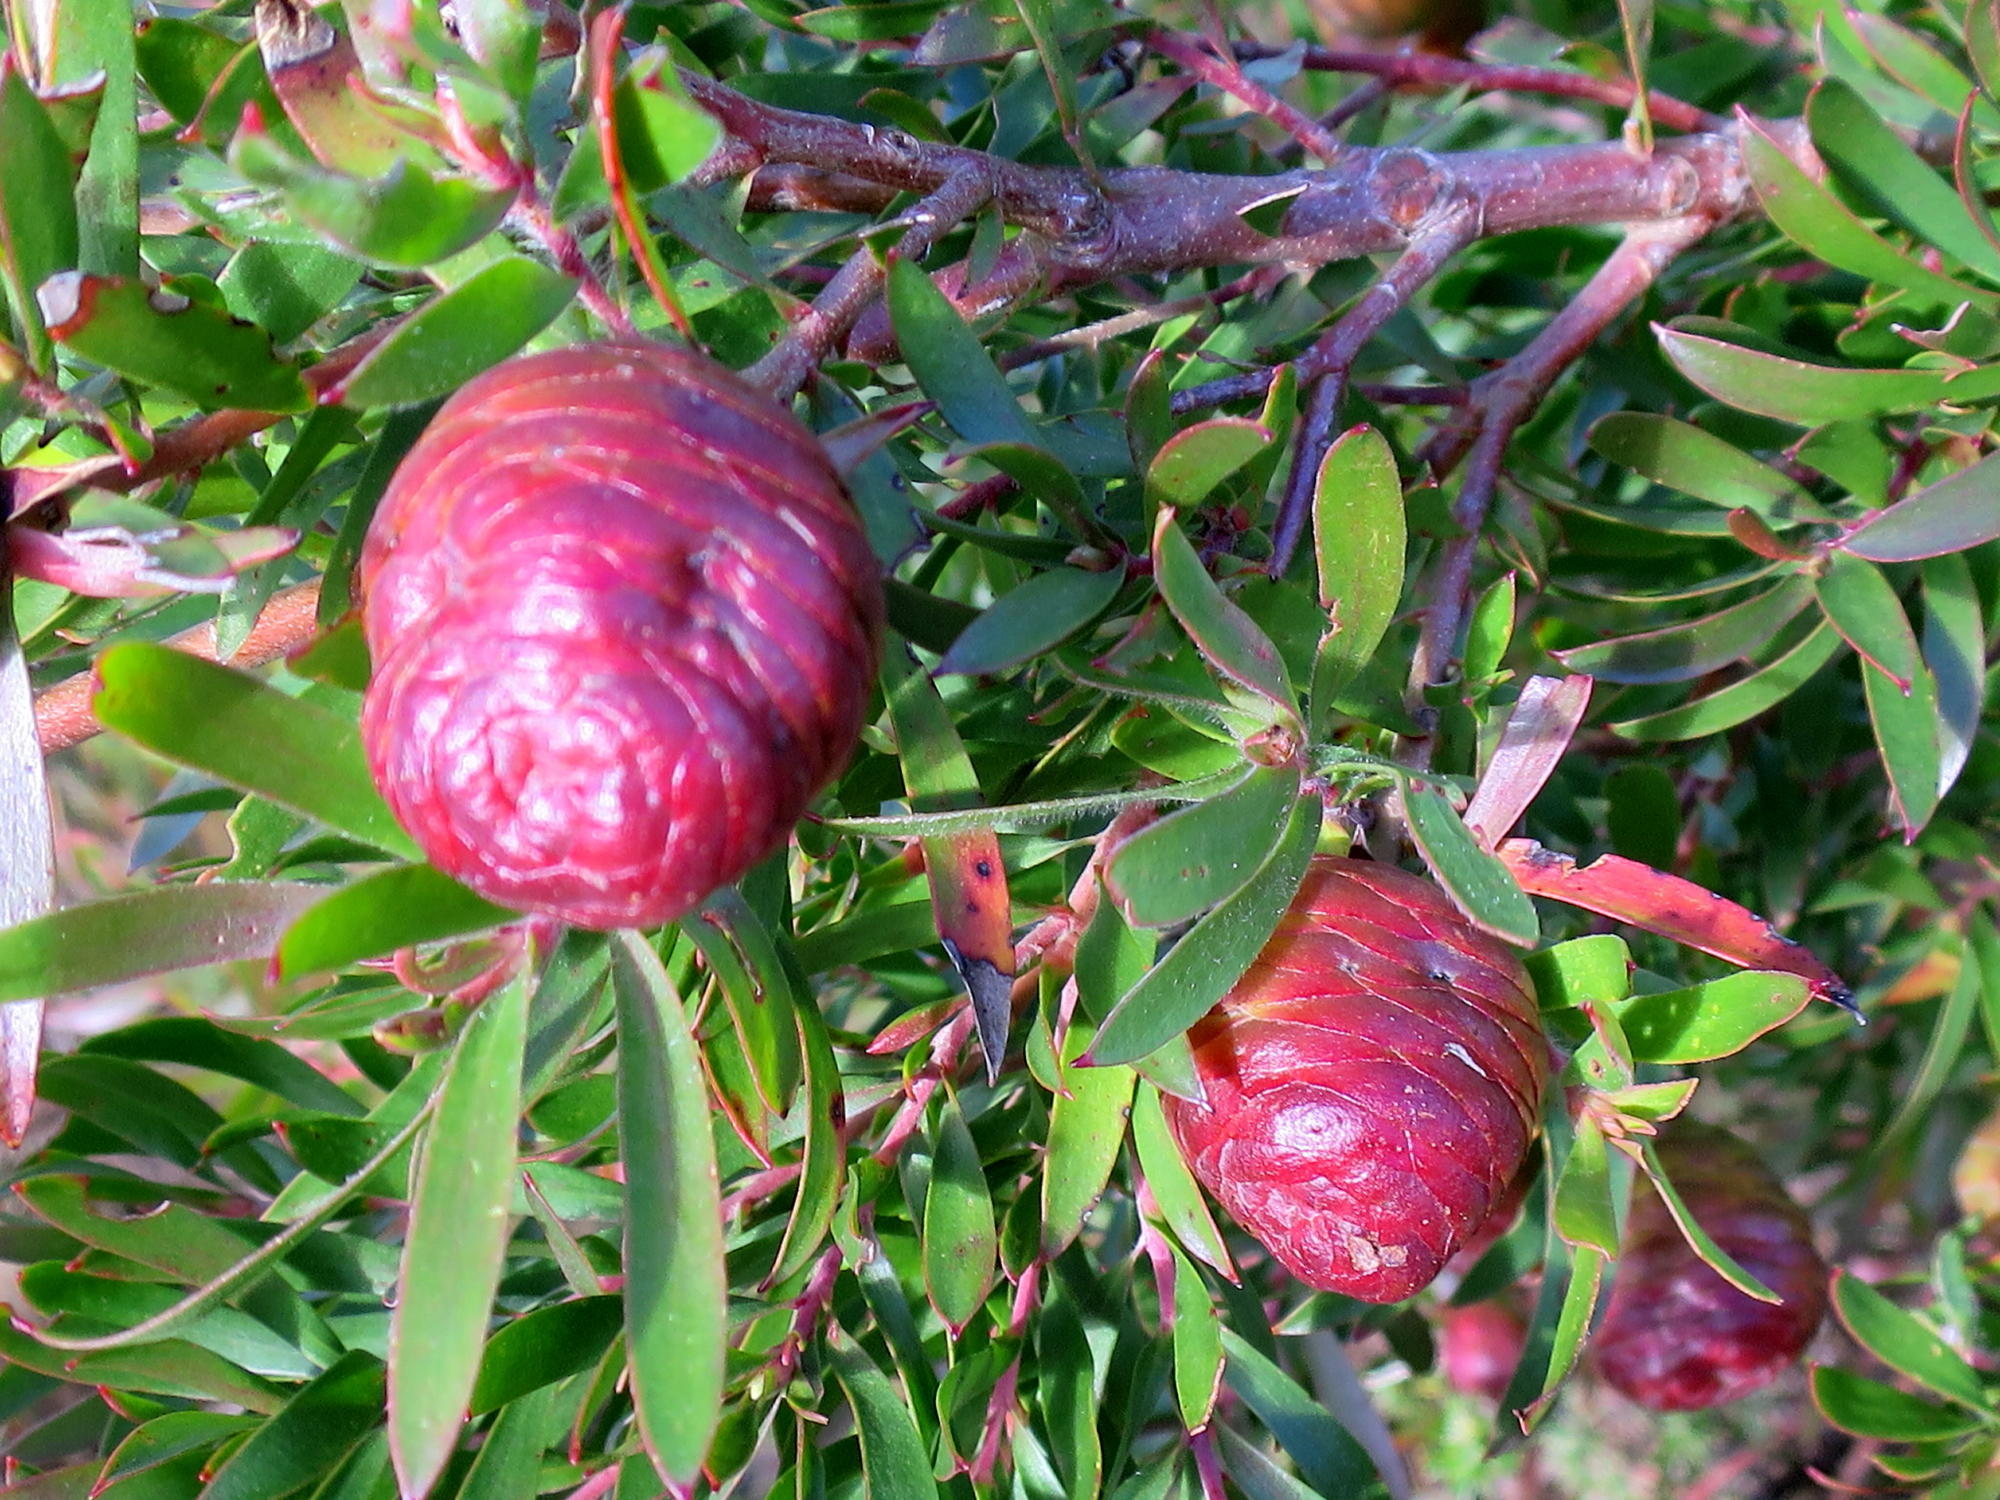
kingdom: Plantae
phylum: Tracheophyta
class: Magnoliopsida
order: Proteales
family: Proteaceae
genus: Leucadendron
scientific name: Leucadendron conicum
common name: Garden route conebush
